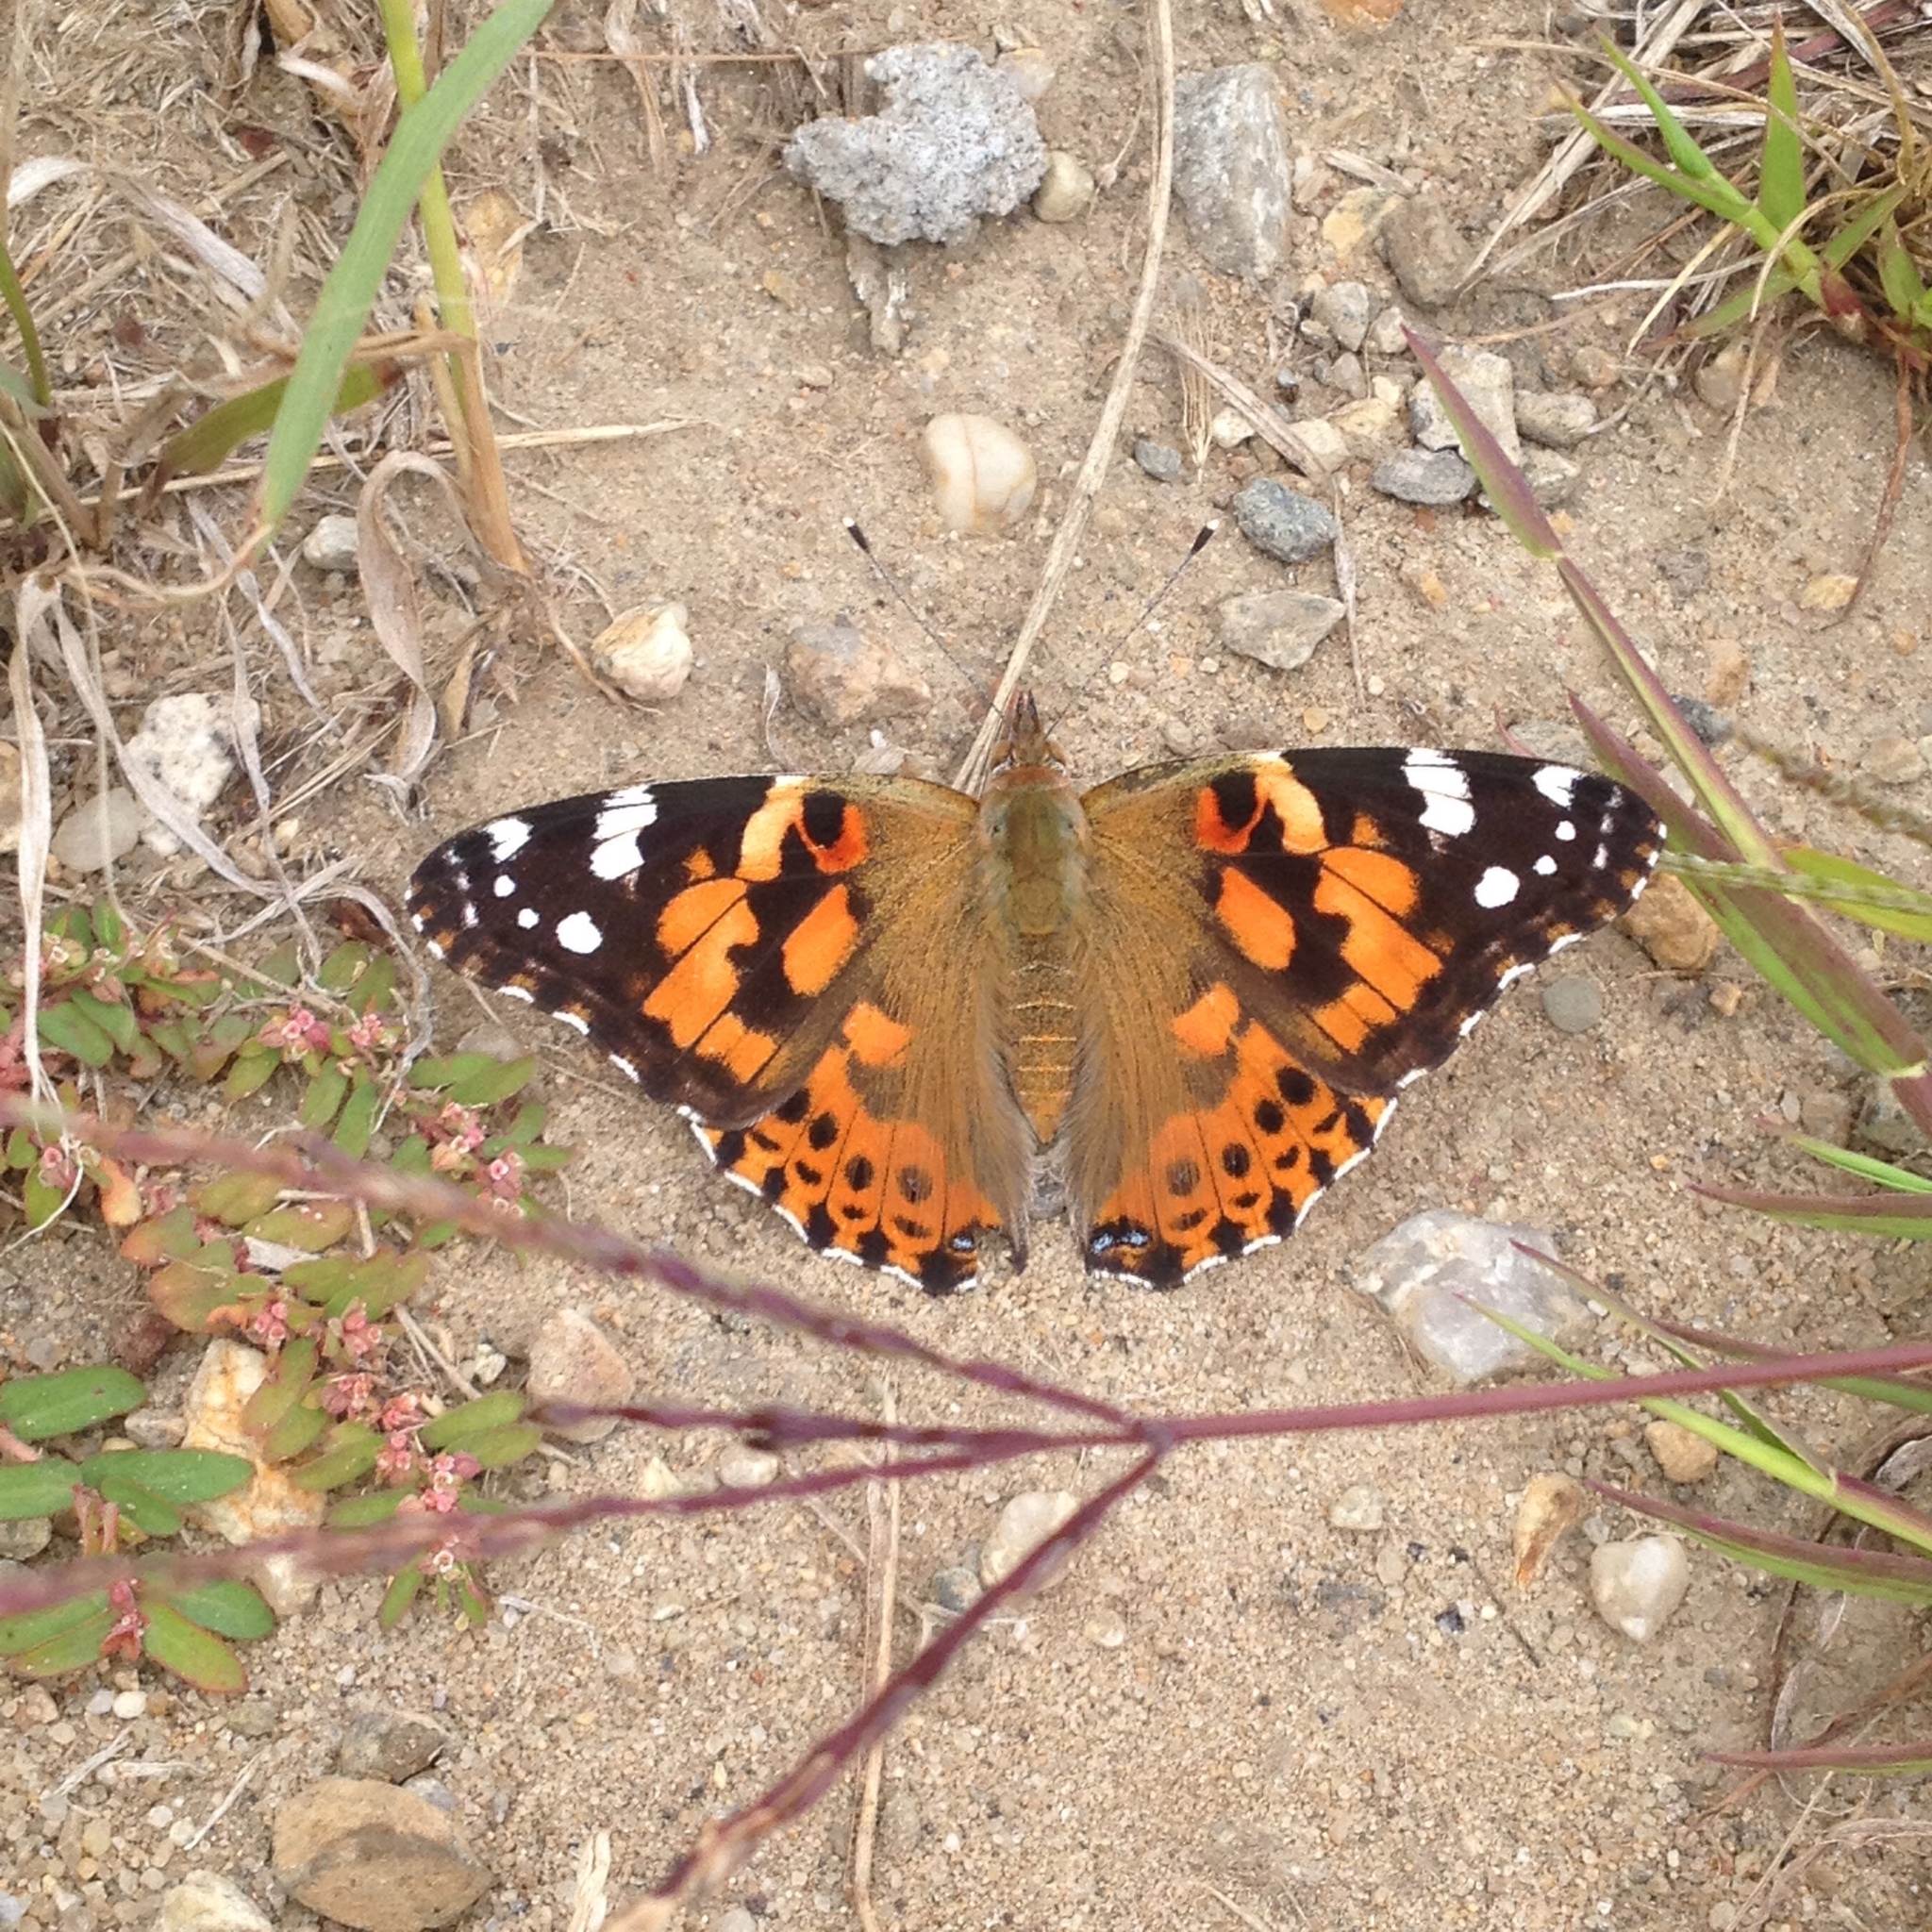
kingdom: Animalia
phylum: Arthropoda
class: Insecta
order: Lepidoptera
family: Nymphalidae
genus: Vanessa
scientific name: Vanessa cardui
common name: Painted lady
